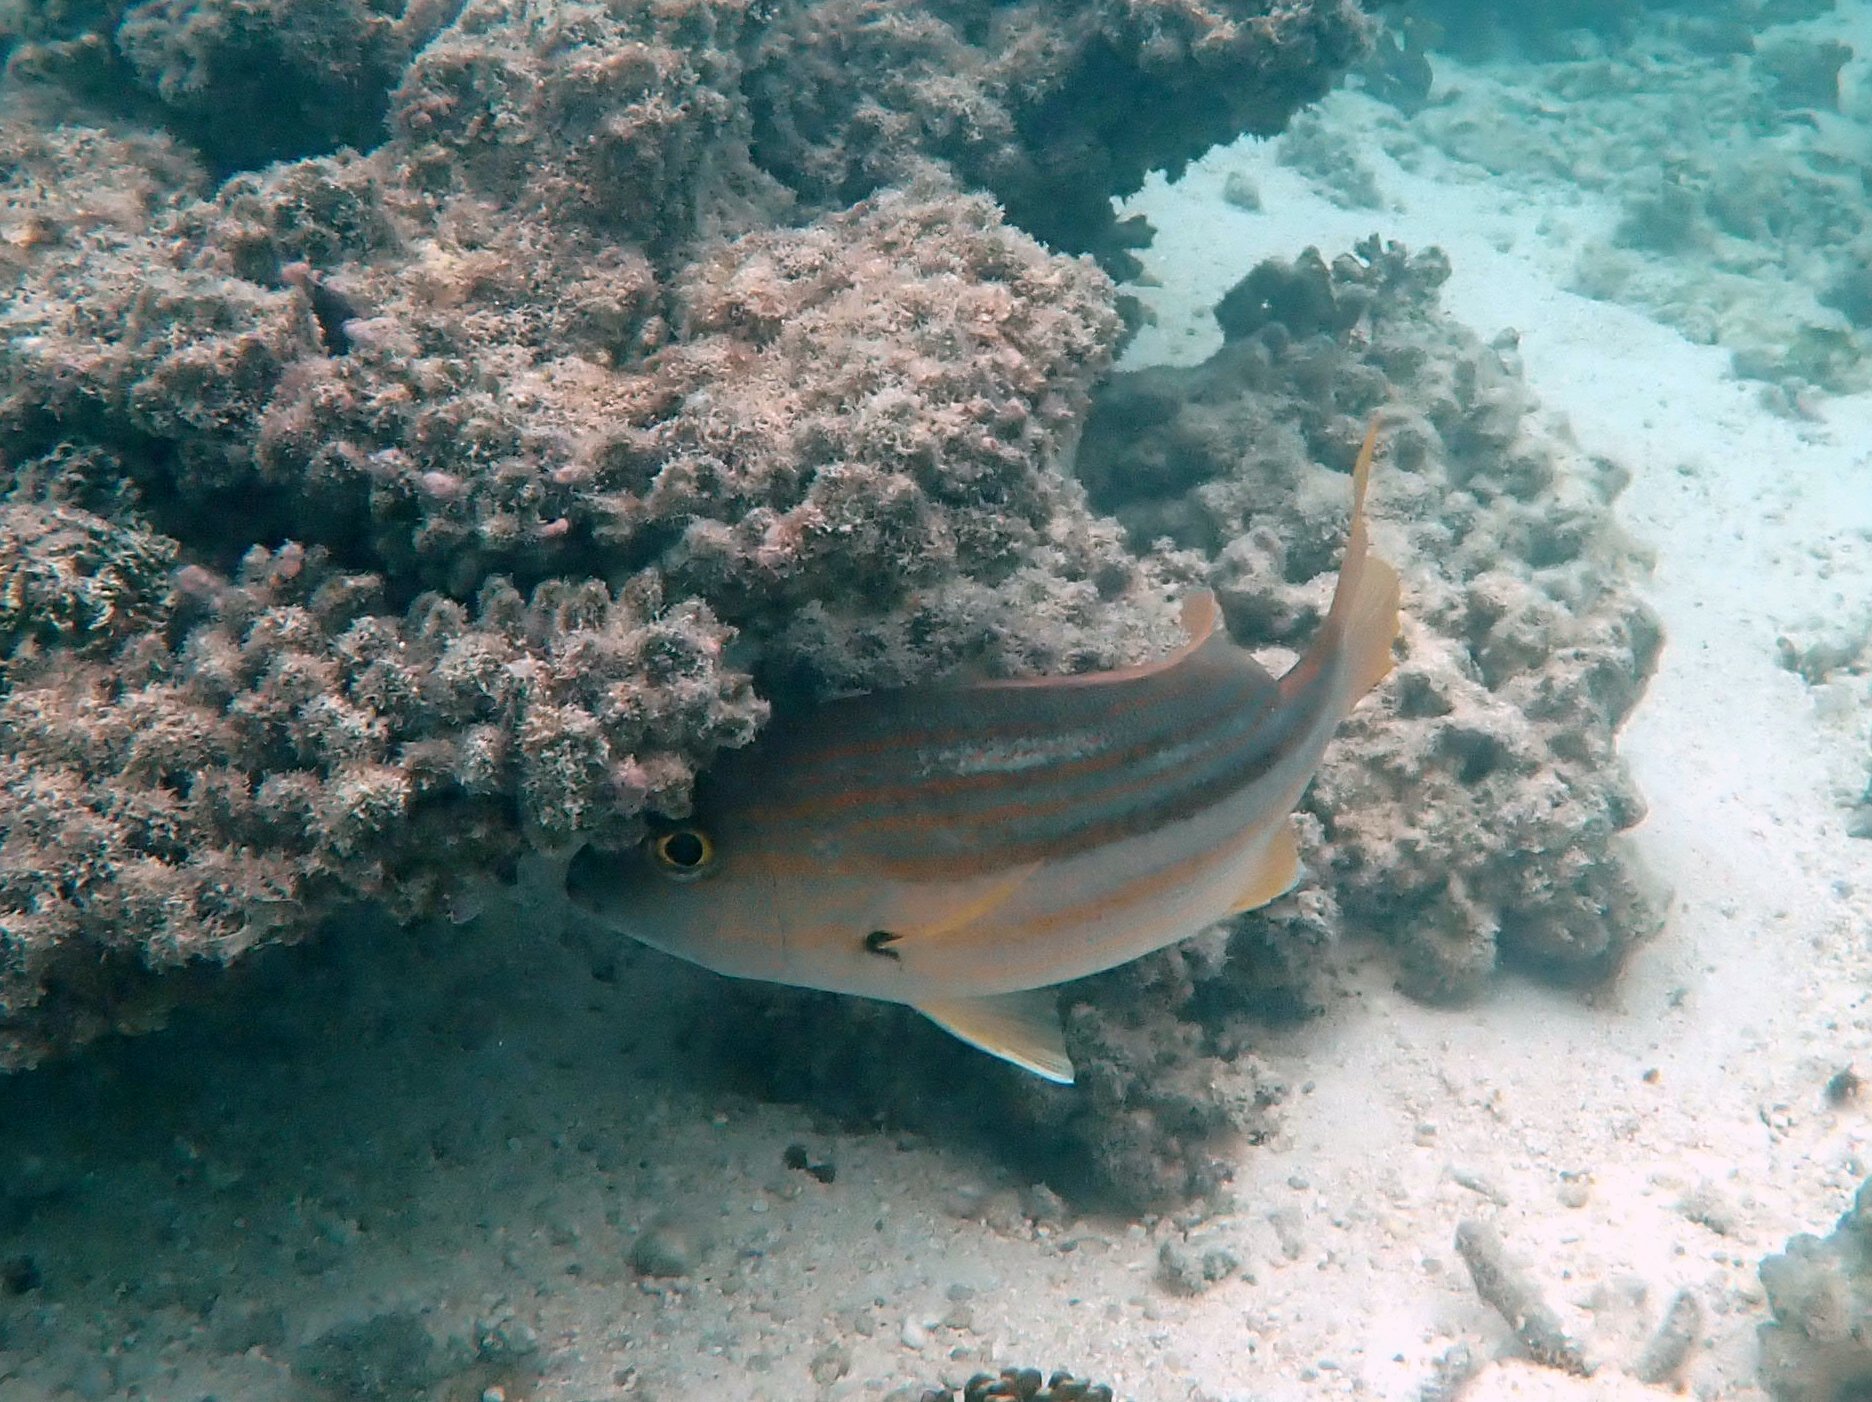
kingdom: Animalia
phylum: Chordata
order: Perciformes
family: Lutjanidae
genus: Lutjanus
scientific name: Lutjanus carponotatus
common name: Spanish flag
